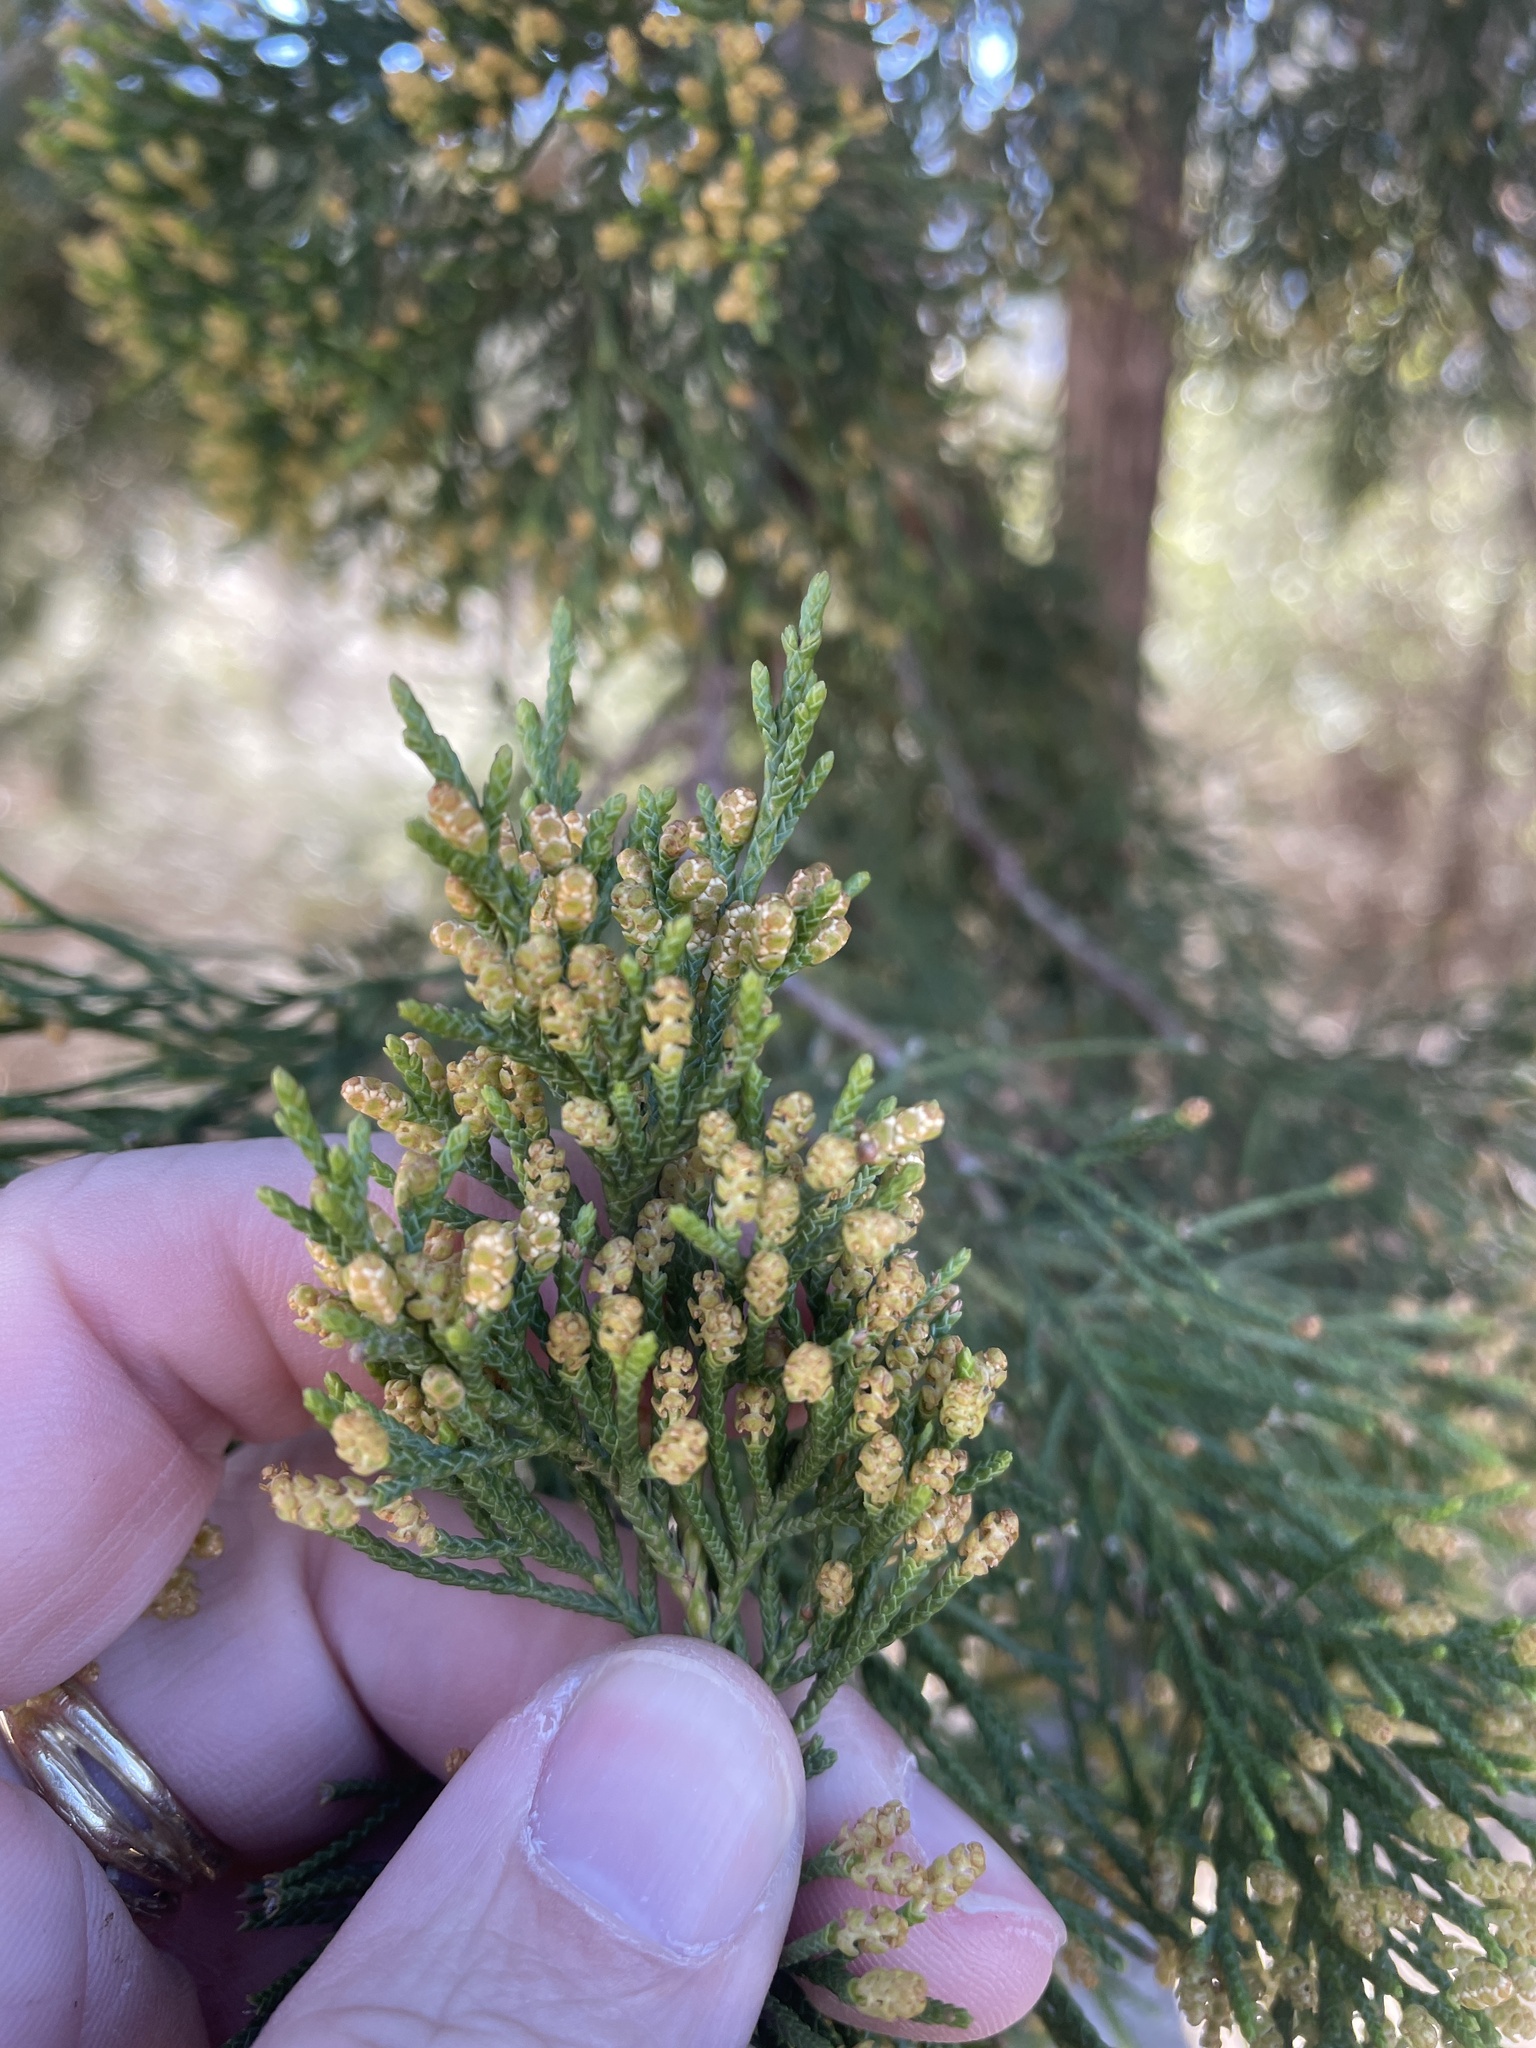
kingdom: Plantae
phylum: Tracheophyta
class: Pinopsida
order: Pinales
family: Cupressaceae
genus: Juniperus
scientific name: Juniperus virginiana
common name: Red juniper
